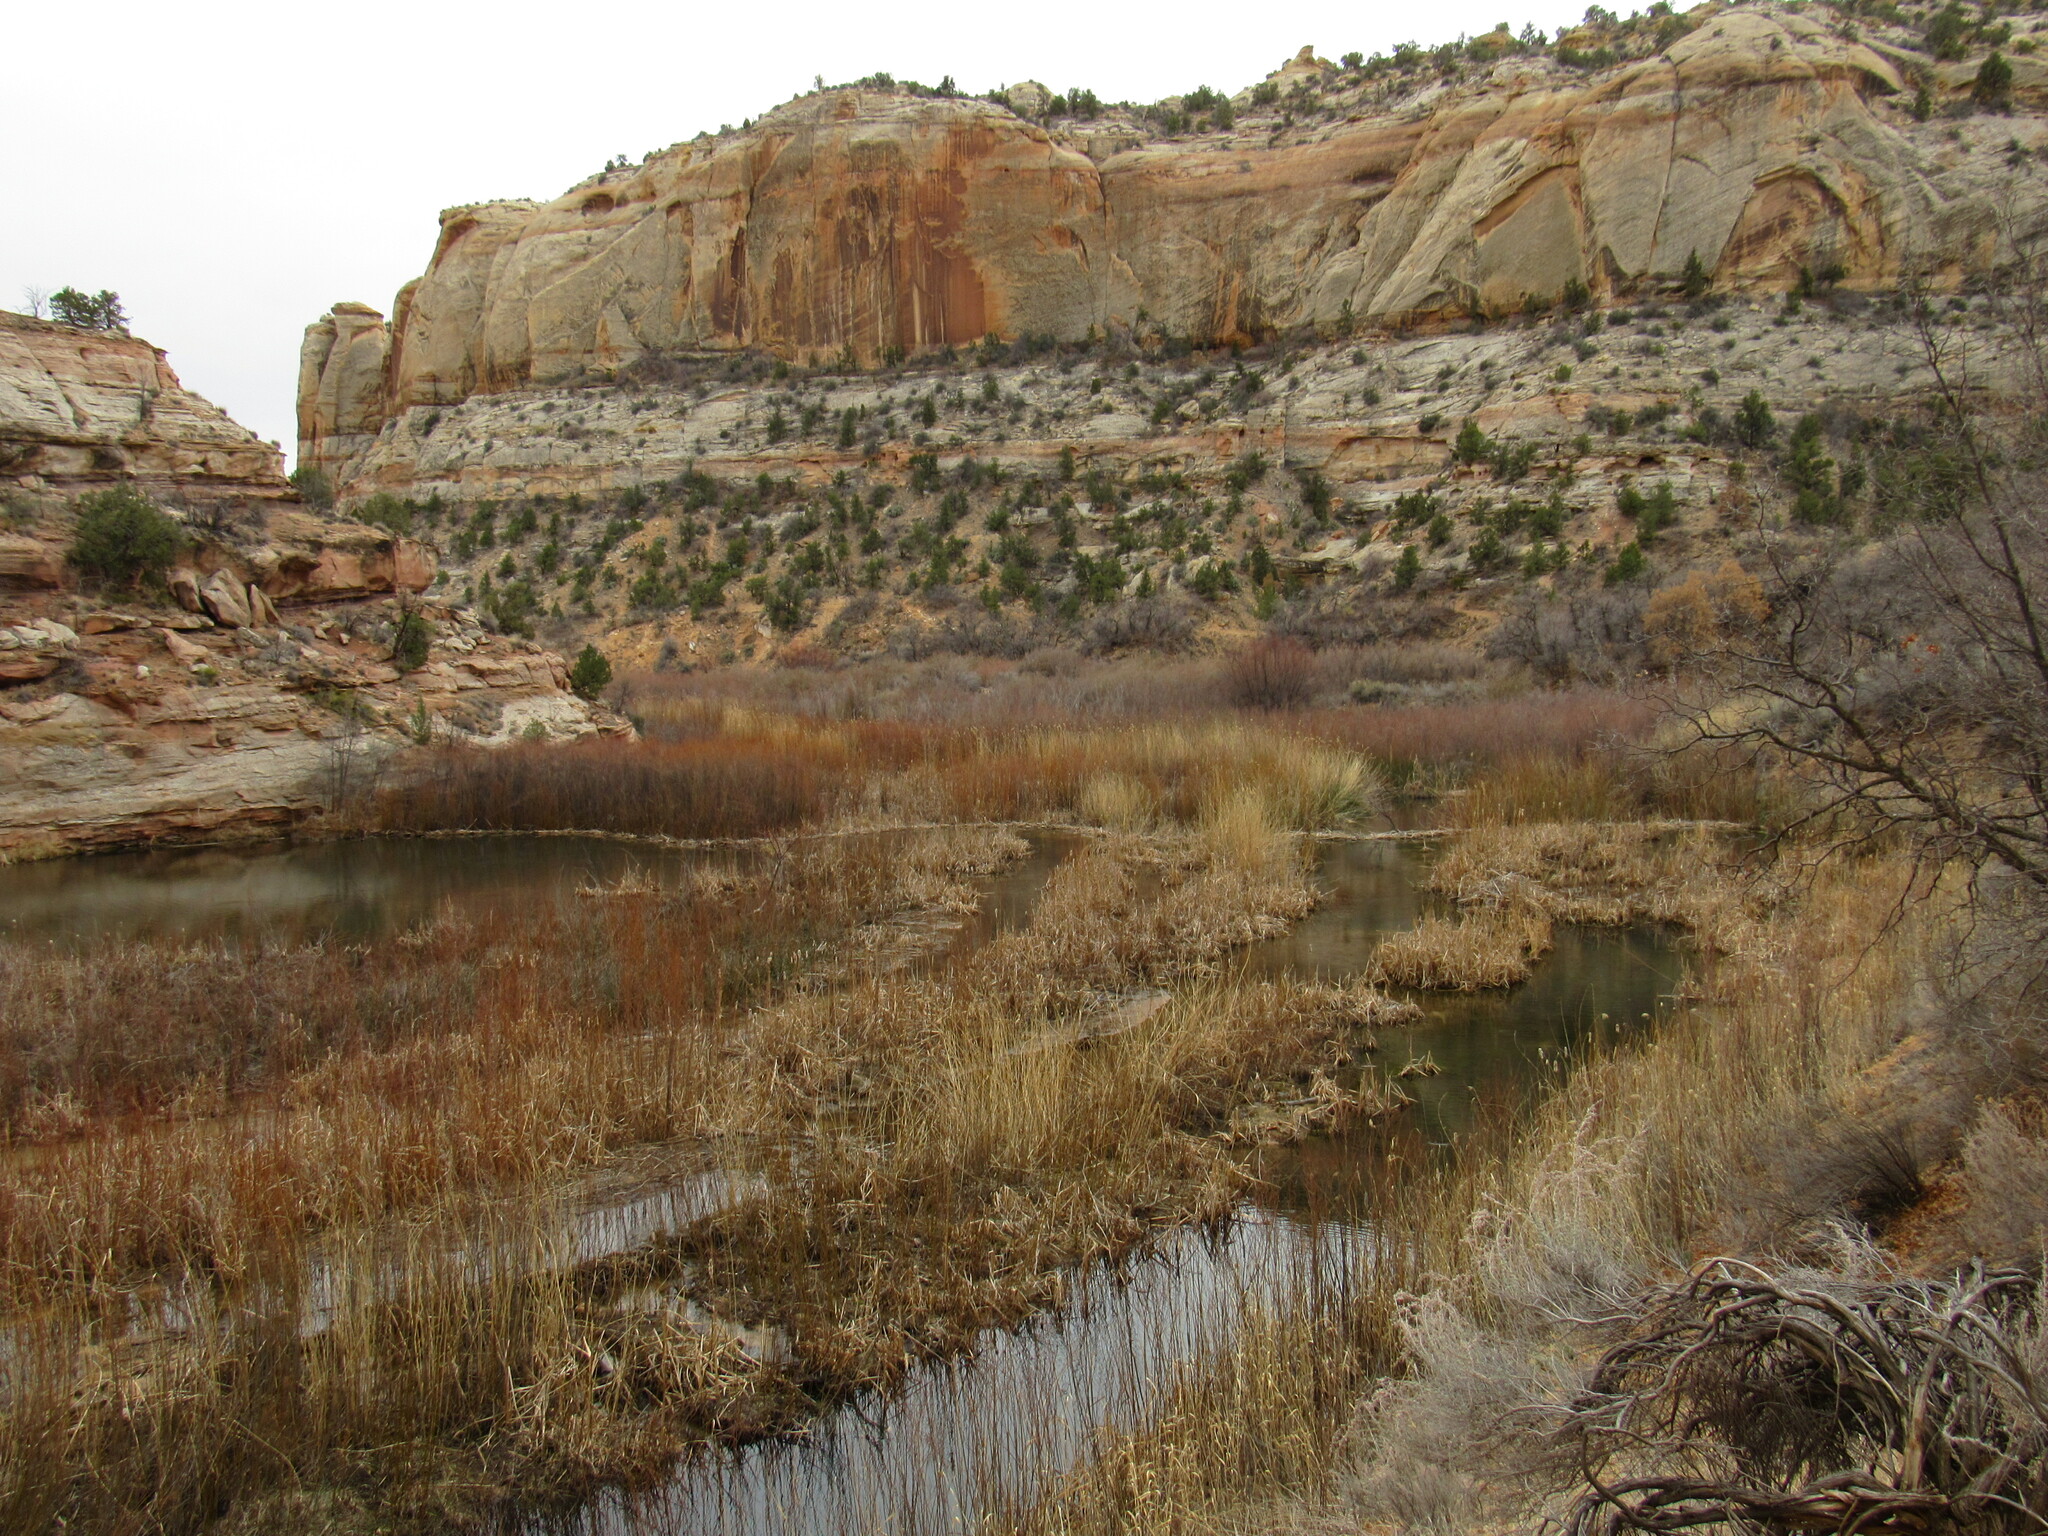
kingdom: Animalia
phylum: Chordata
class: Mammalia
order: Rodentia
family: Castoridae
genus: Castor
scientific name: Castor canadensis
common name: American beaver
